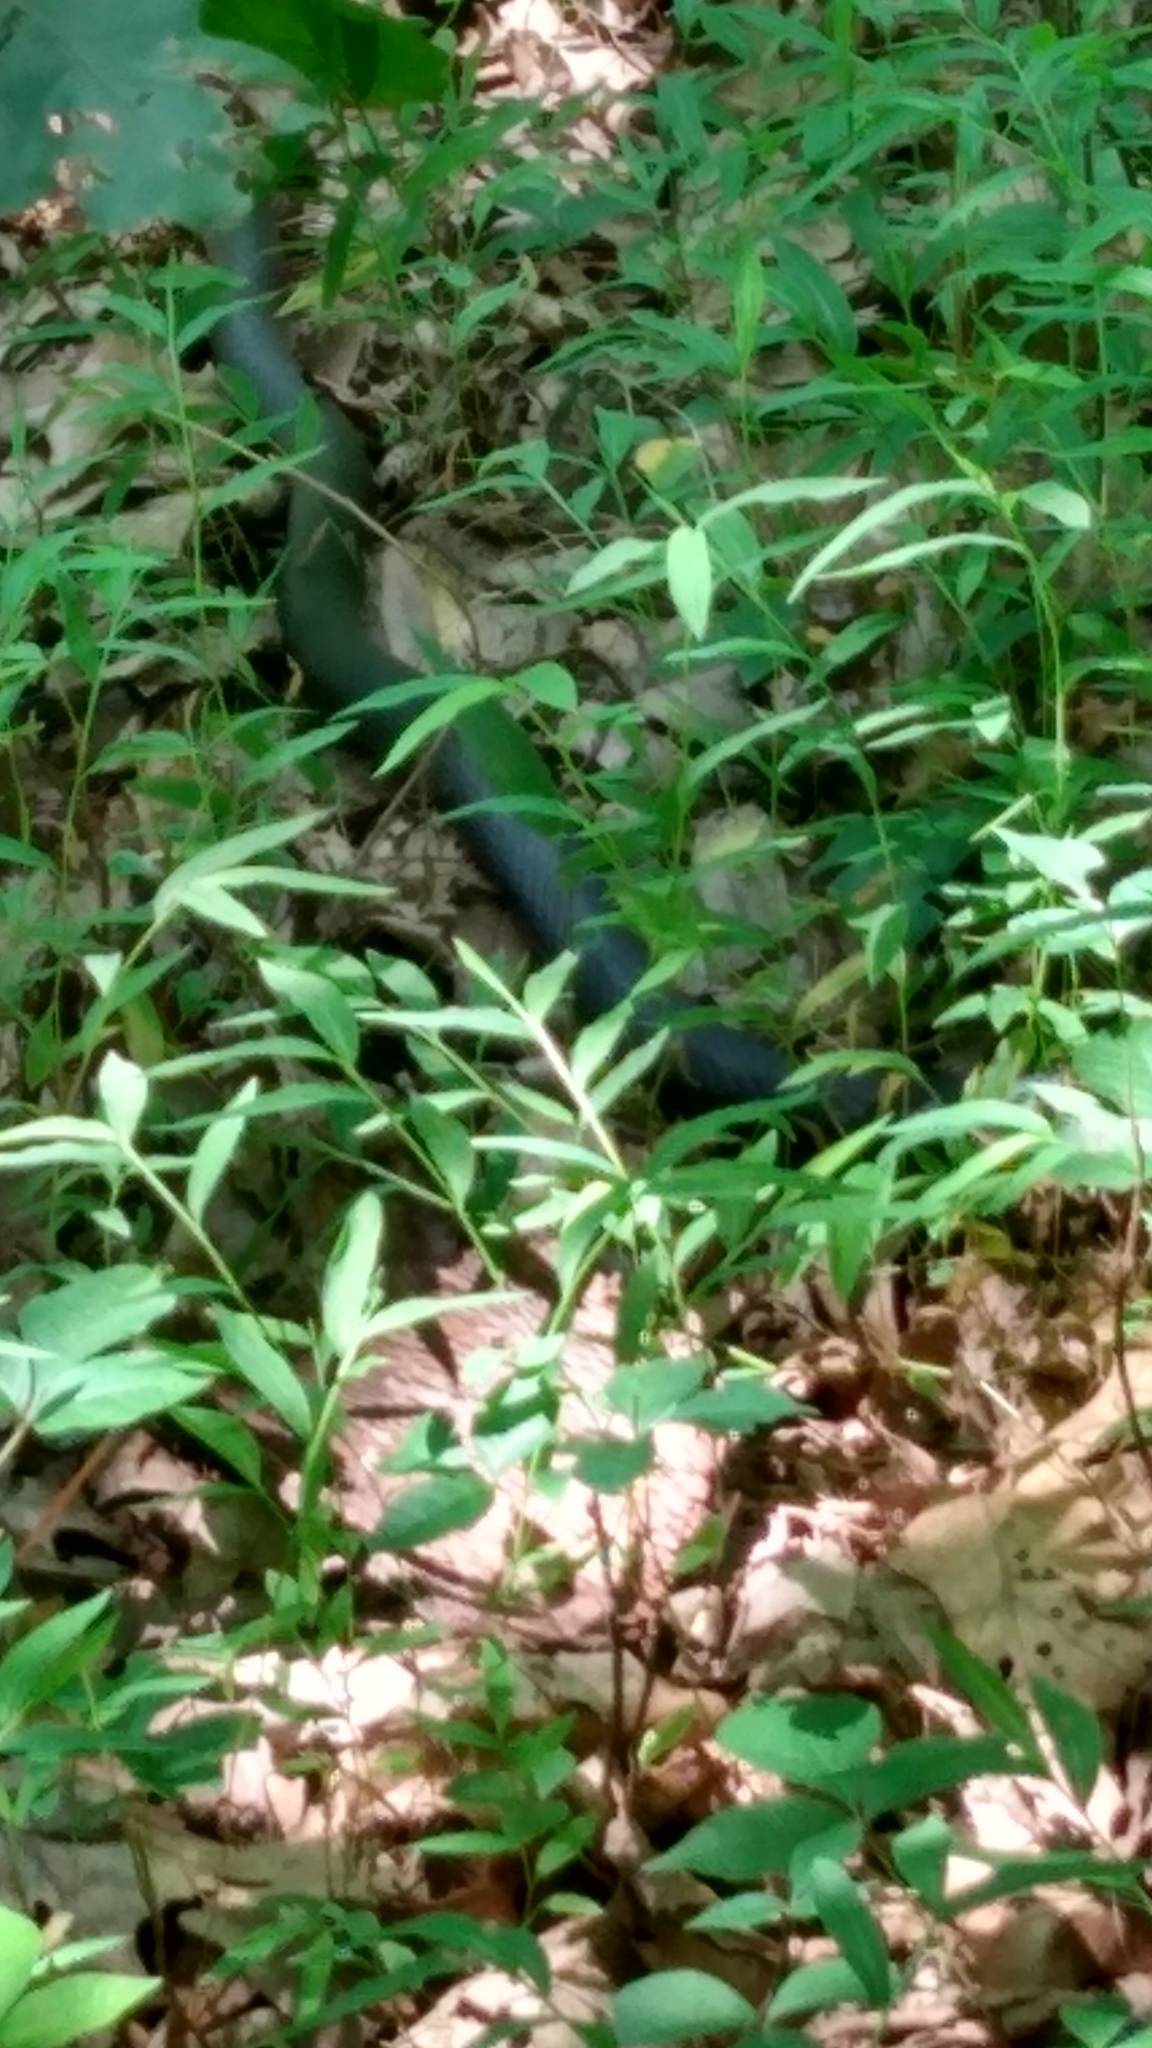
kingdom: Animalia
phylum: Chordata
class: Squamata
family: Colubridae
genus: Coluber
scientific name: Coluber constrictor
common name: Eastern racer
